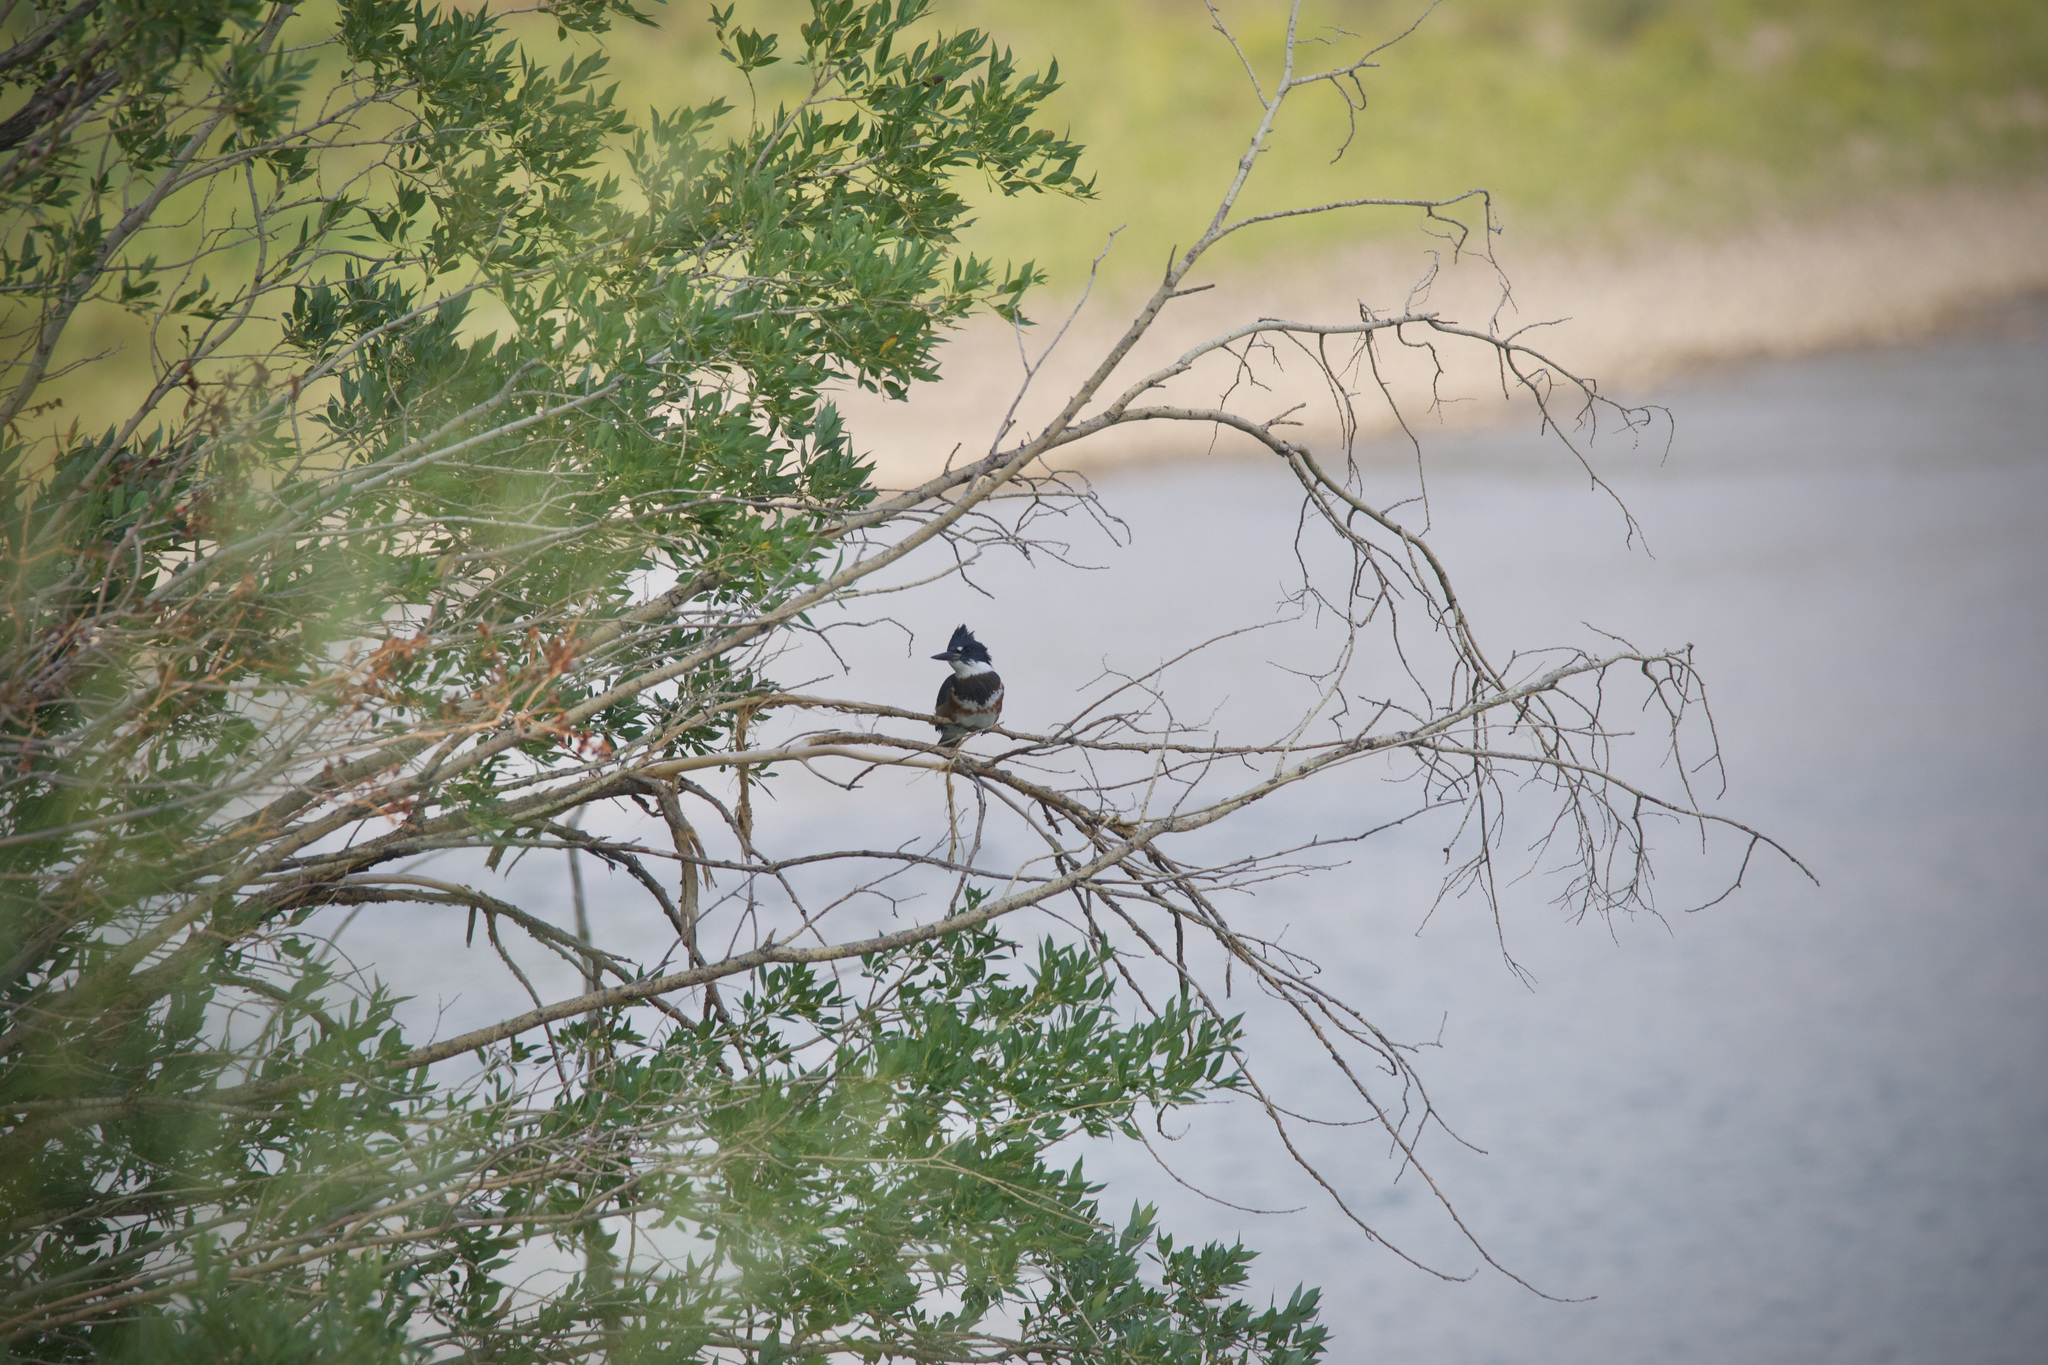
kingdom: Animalia
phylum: Chordata
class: Aves
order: Coraciiformes
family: Alcedinidae
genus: Megaceryle
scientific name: Megaceryle alcyon
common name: Belted kingfisher
